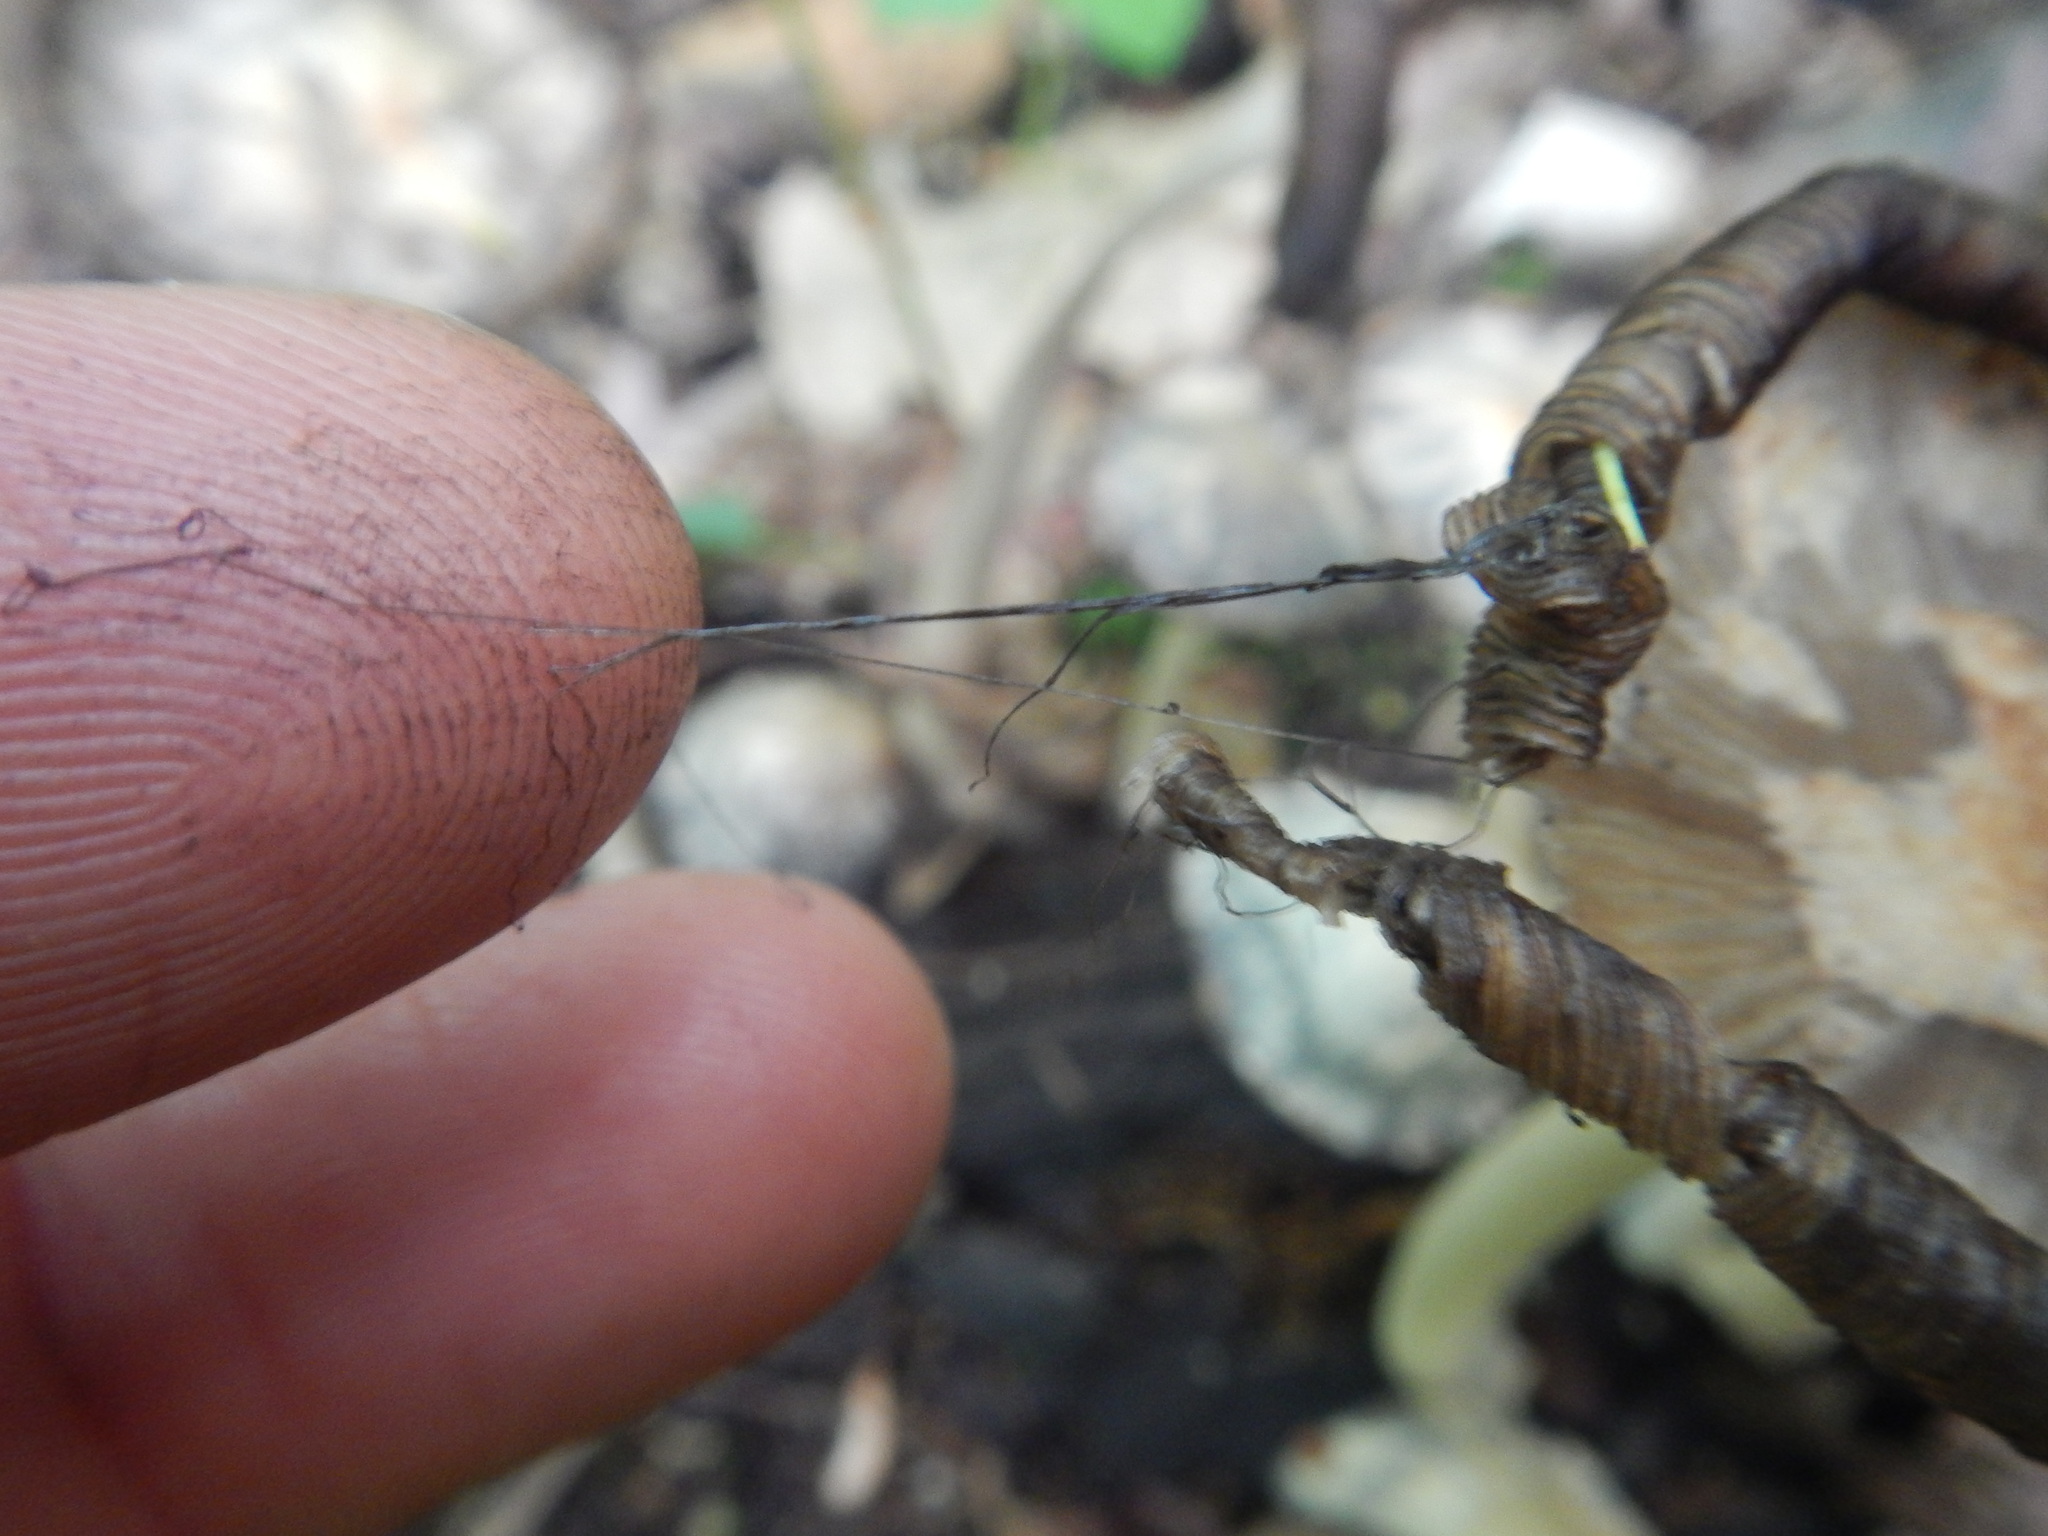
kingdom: Fungi
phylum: Basidiomycota
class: Agaricomycetes
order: Agaricales
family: Agaricaceae
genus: Coprinus
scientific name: Coprinus comatus
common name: Lawyer's wig
